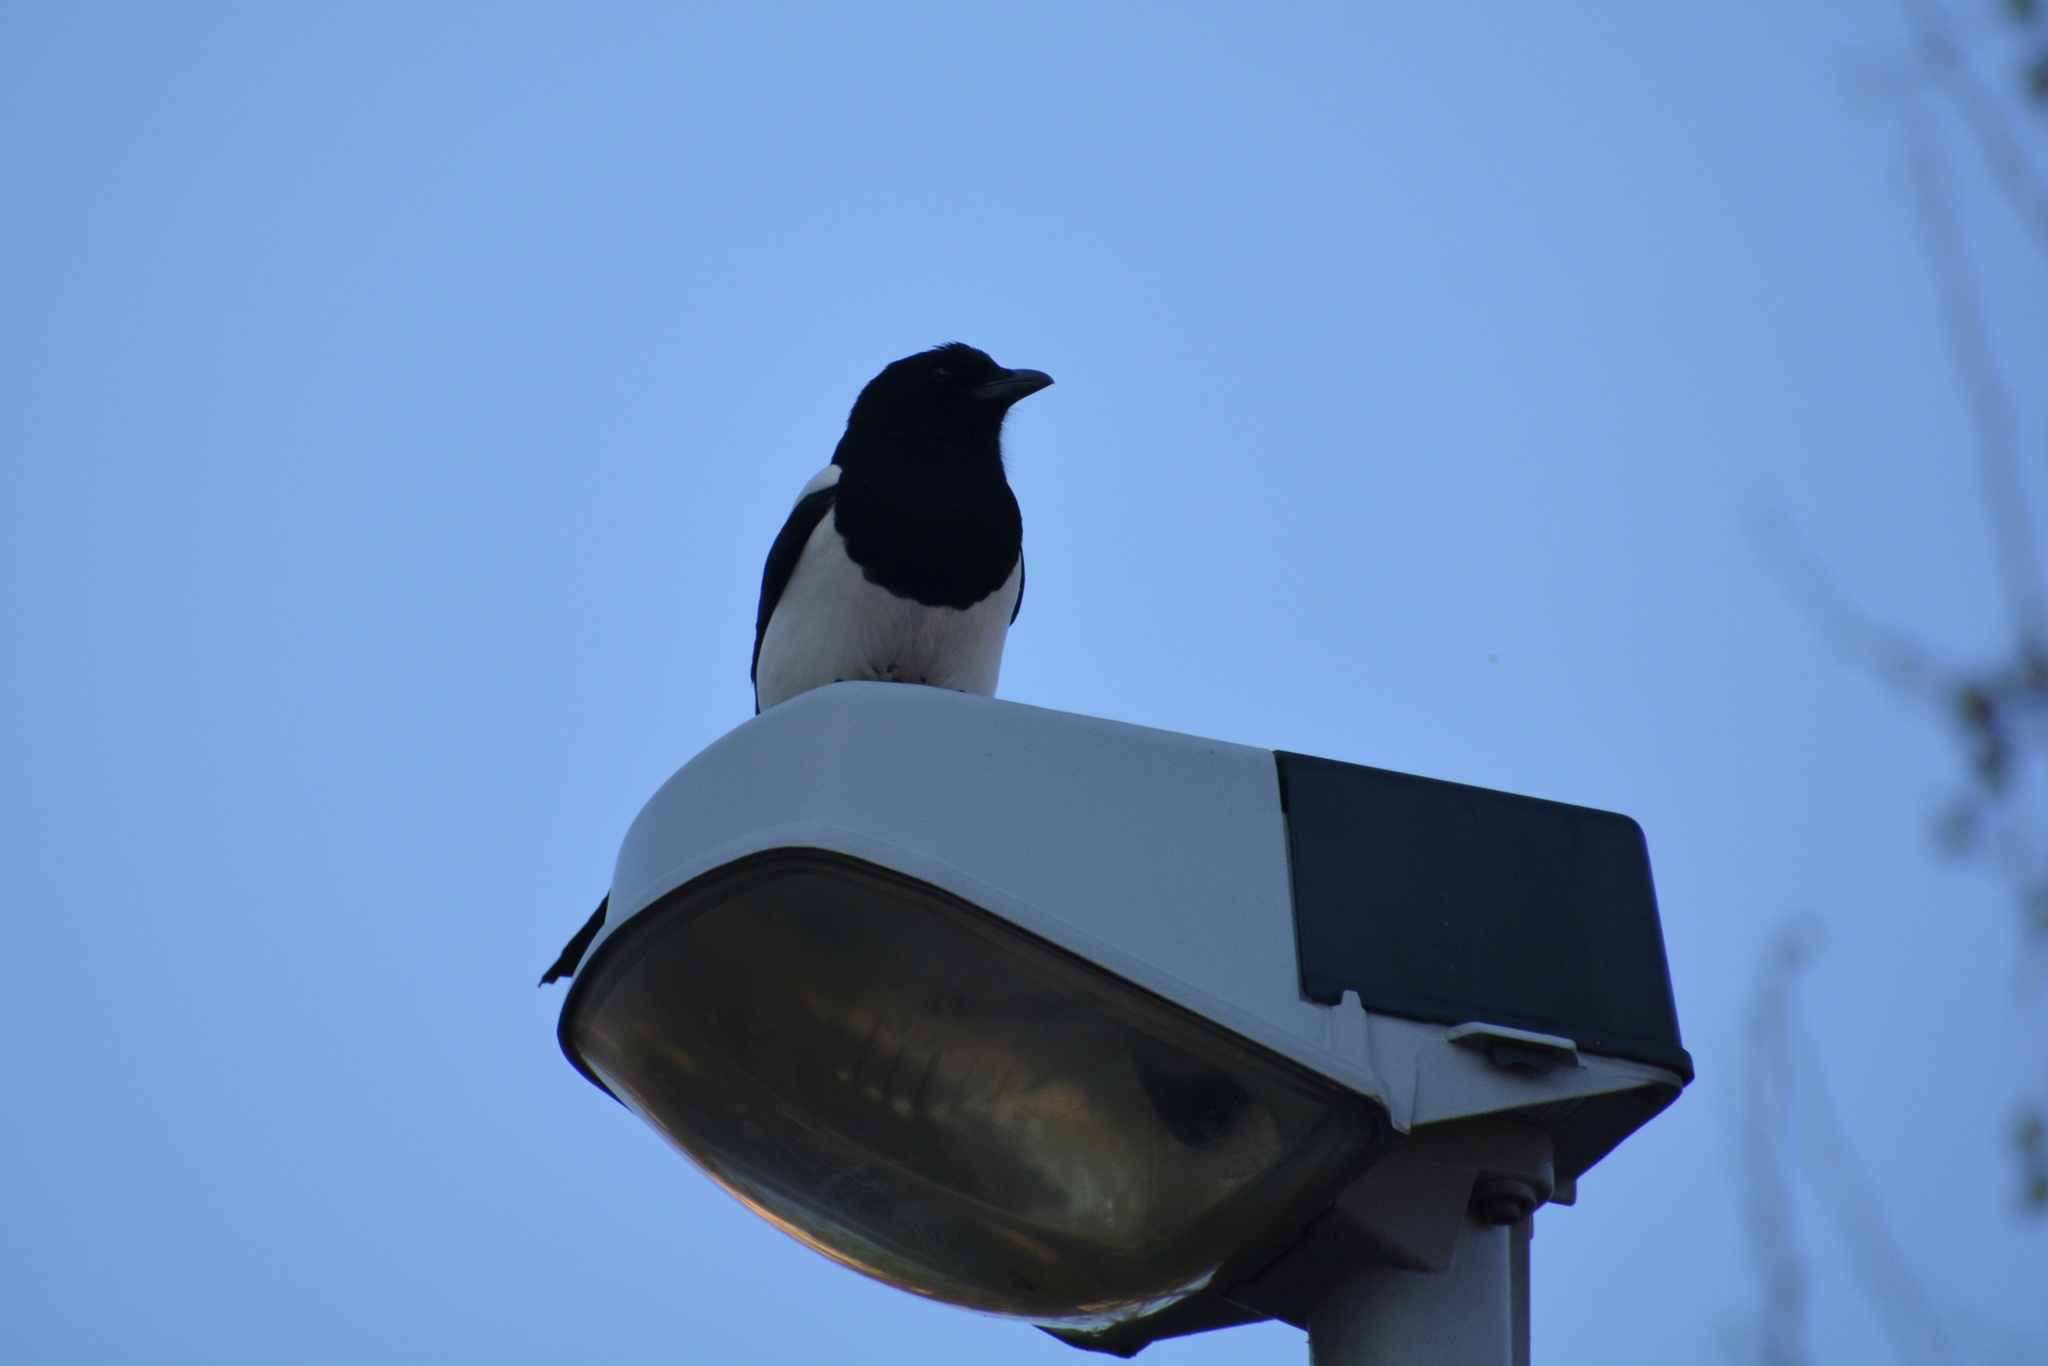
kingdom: Animalia
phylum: Chordata
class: Aves
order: Passeriformes
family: Corvidae
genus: Pica
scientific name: Pica pica
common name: Eurasian magpie
